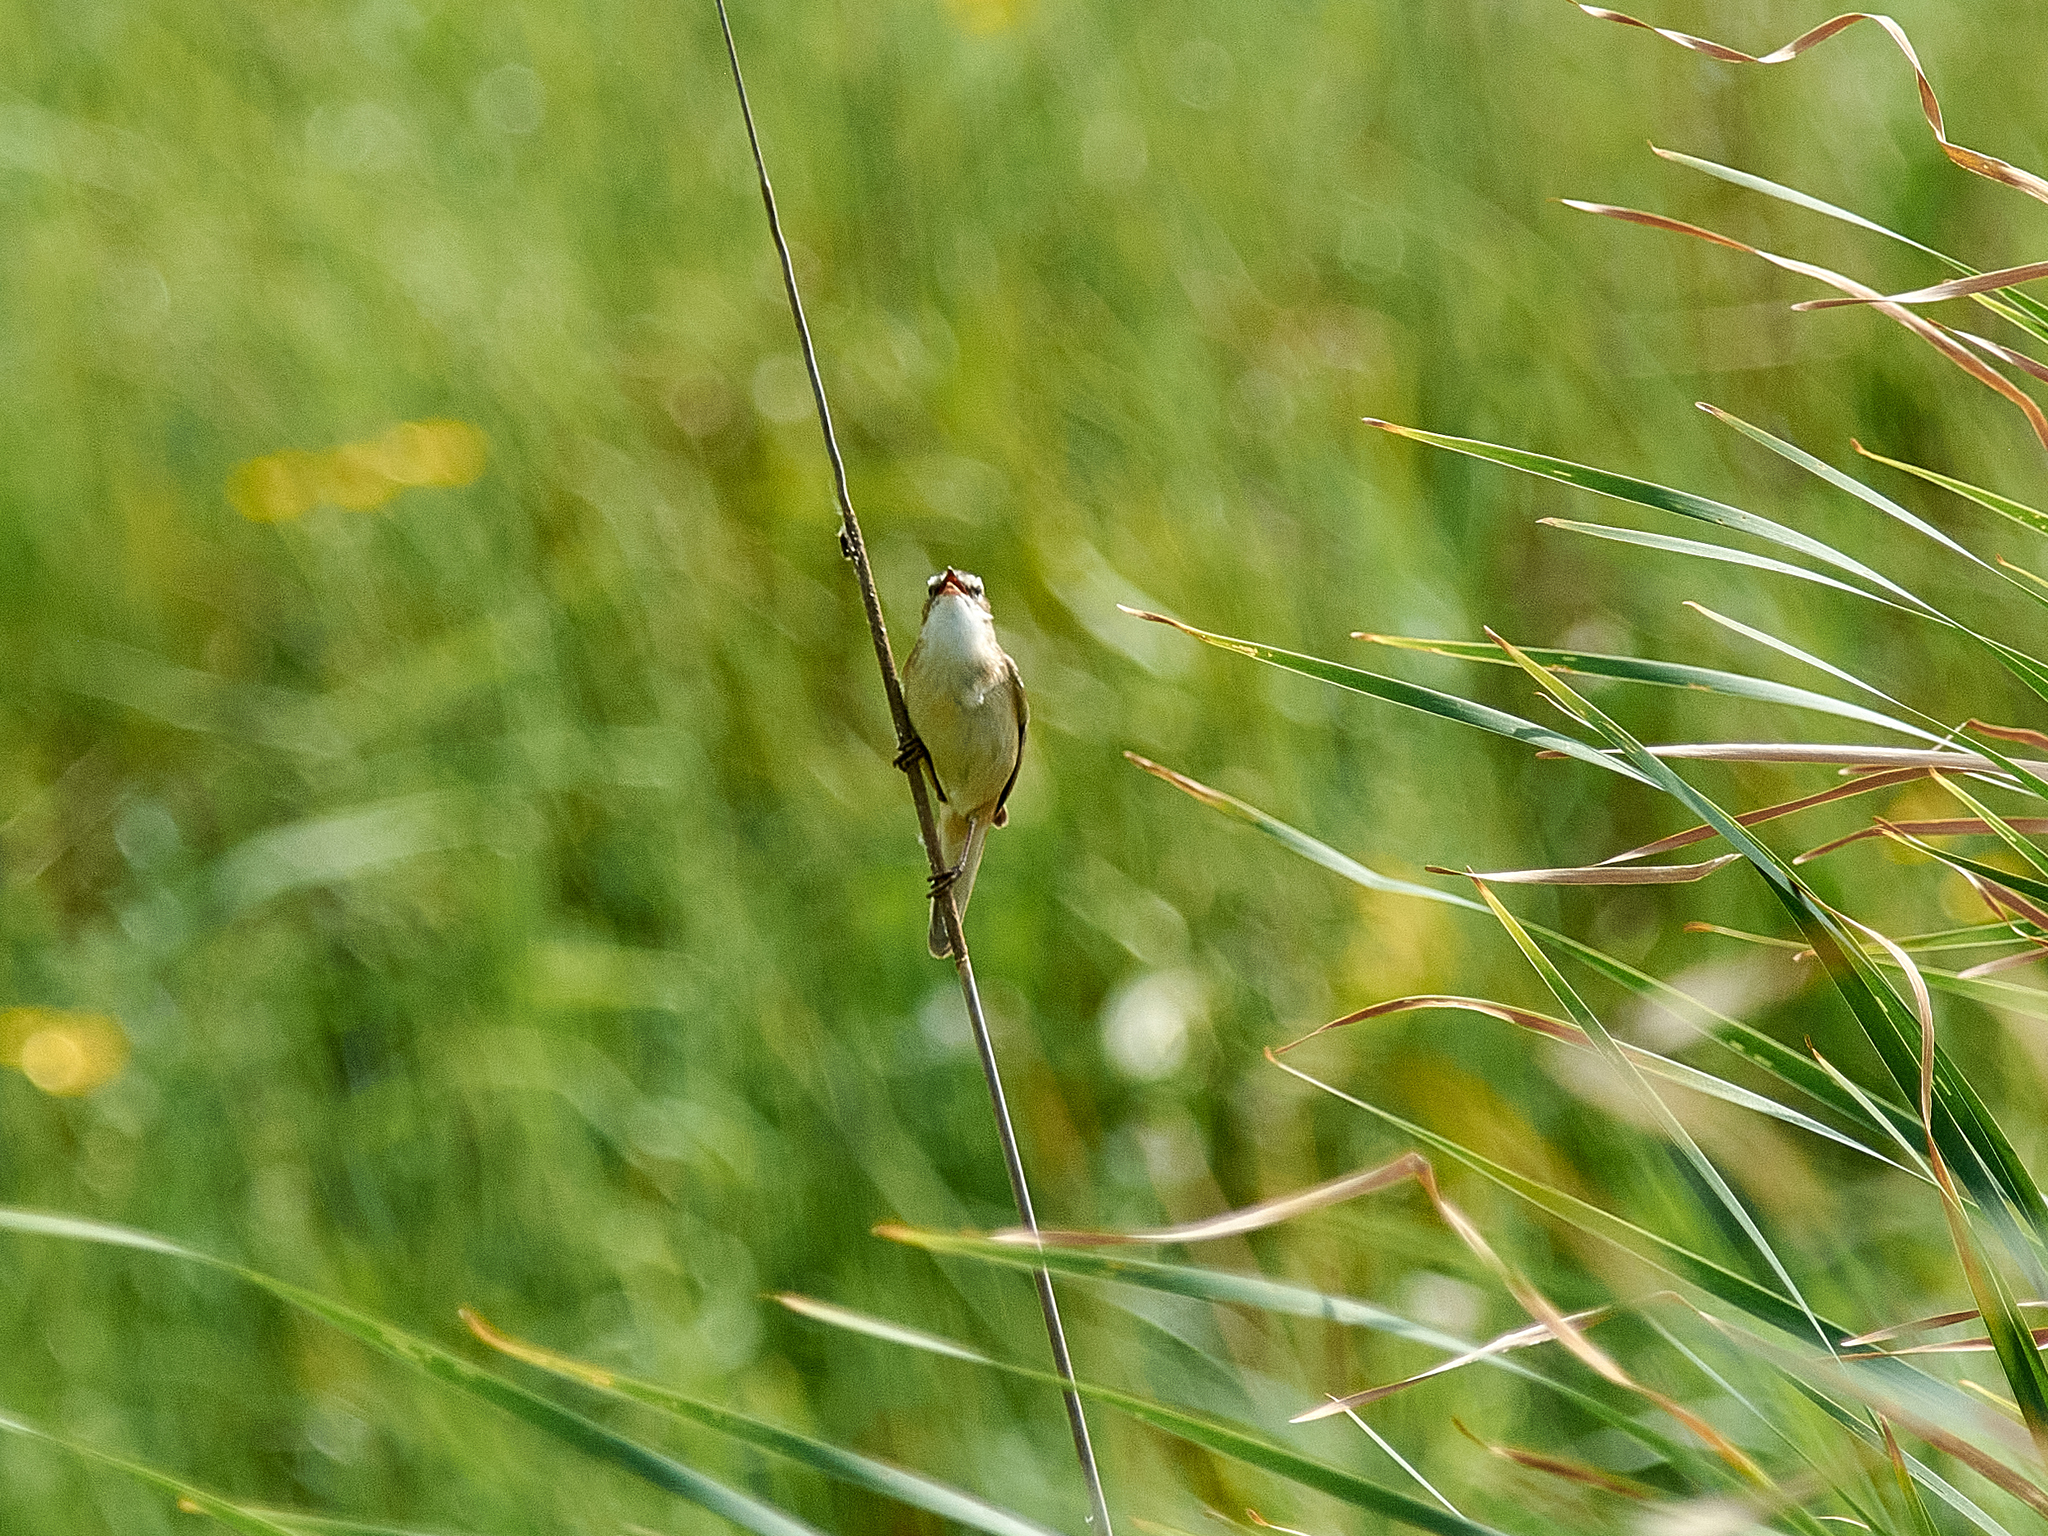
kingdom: Animalia
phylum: Chordata
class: Aves
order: Passeriformes
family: Acrocephalidae
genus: Acrocephalus
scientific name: Acrocephalus schoenobaenus
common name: Sedge warbler
